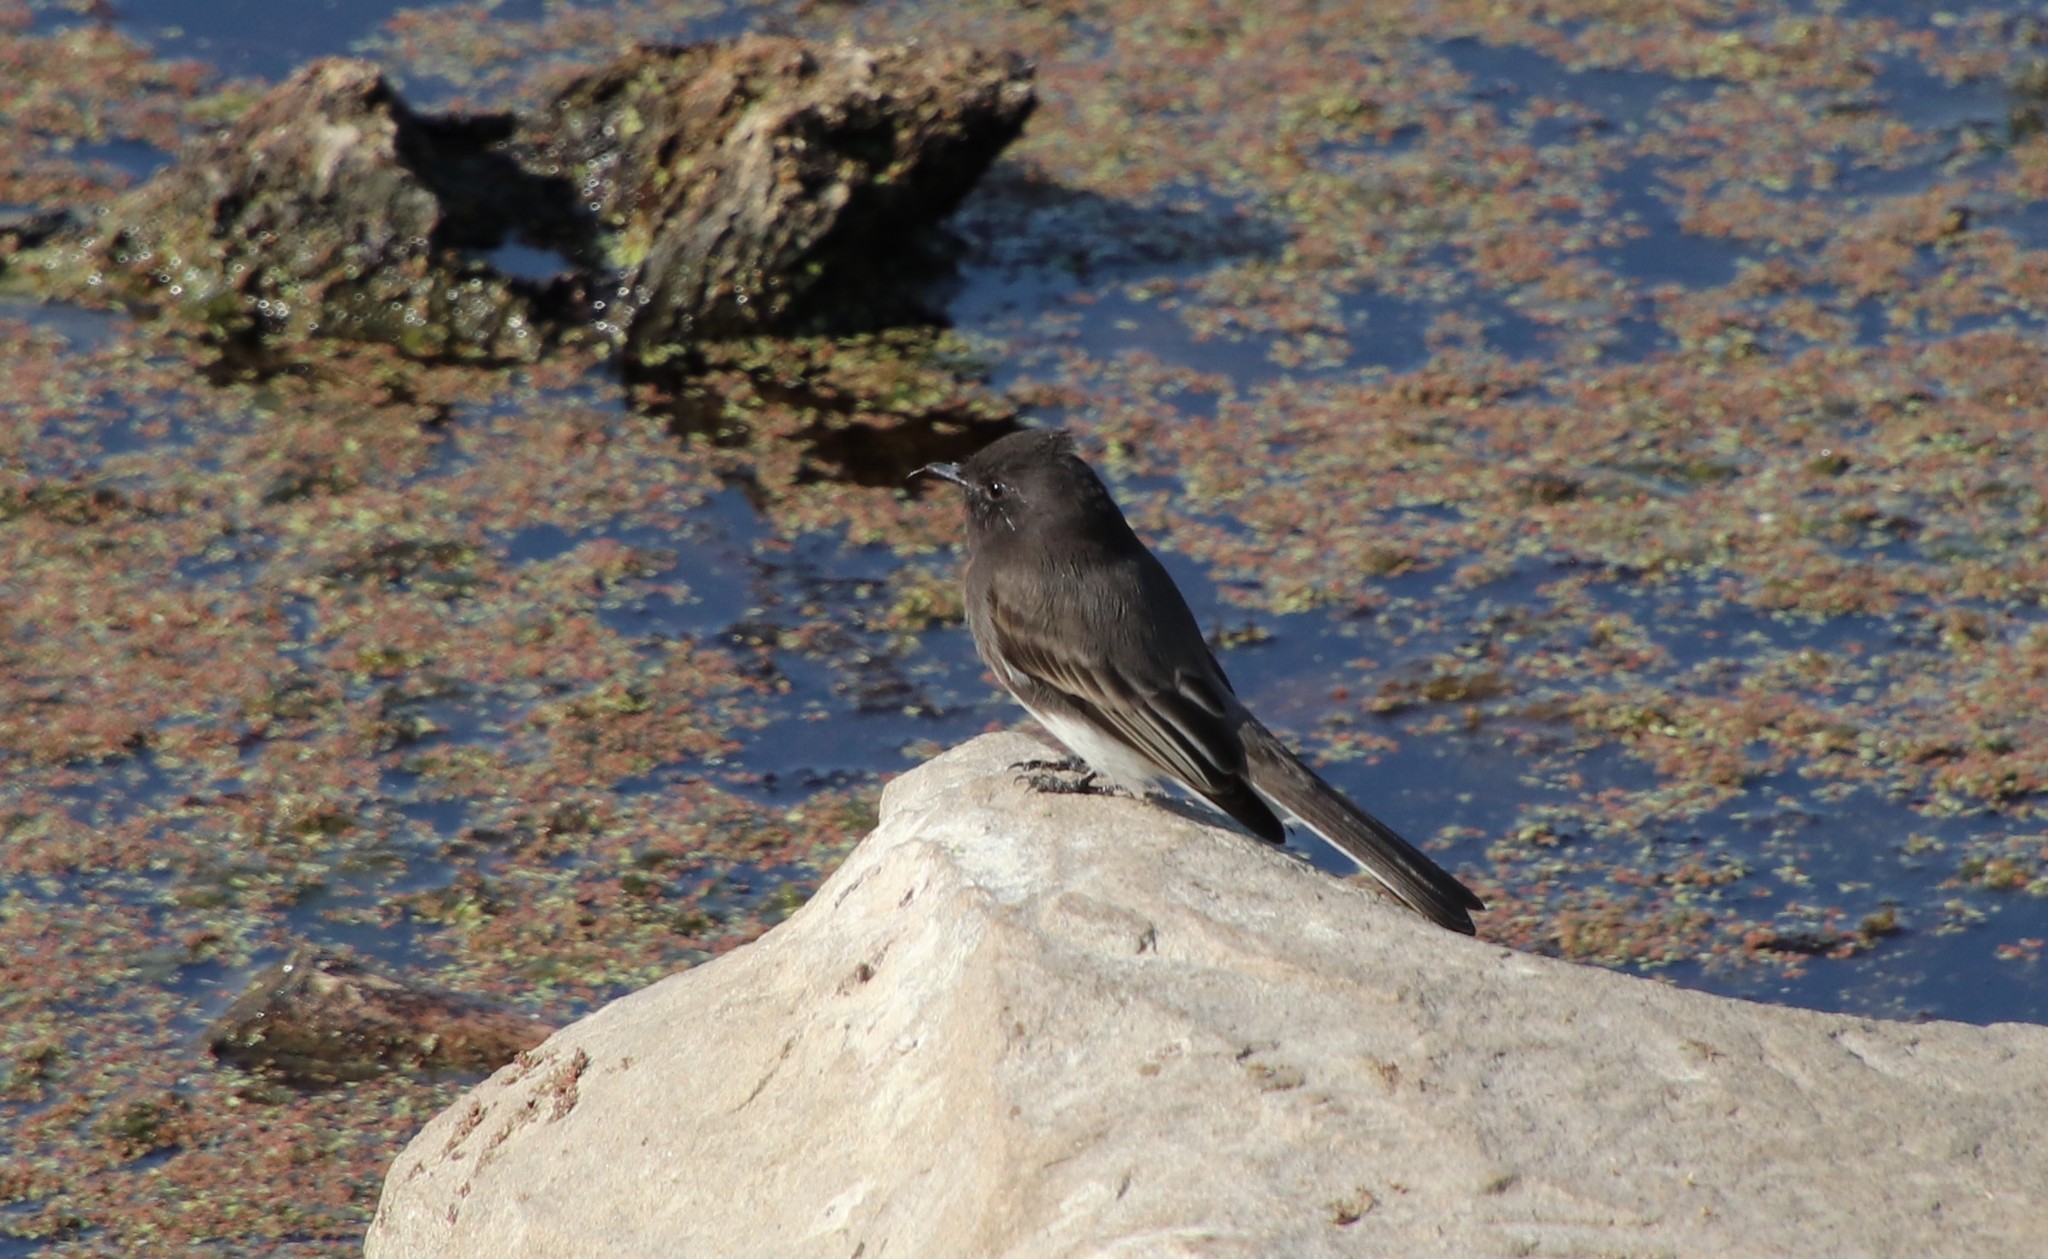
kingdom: Animalia
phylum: Chordata
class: Aves
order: Passeriformes
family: Tyrannidae
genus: Sayornis
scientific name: Sayornis nigricans
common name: Black phoebe
